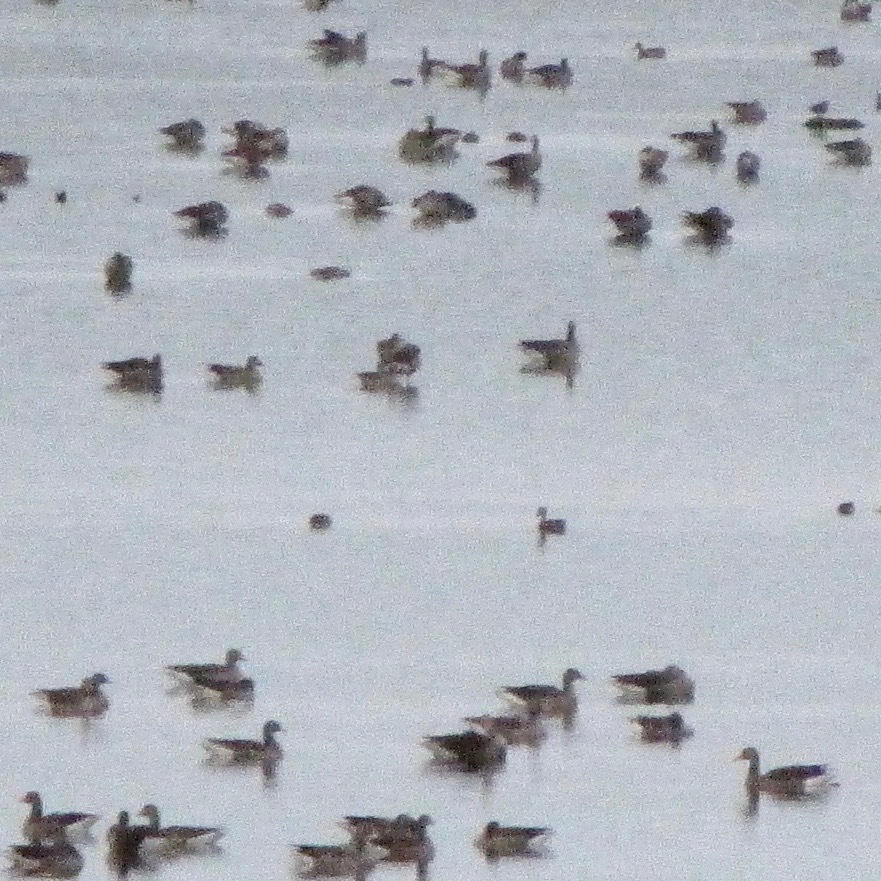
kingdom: Animalia
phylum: Chordata
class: Aves
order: Anseriformes
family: Anatidae
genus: Anser
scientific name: Anser anser
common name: Greylag goose
